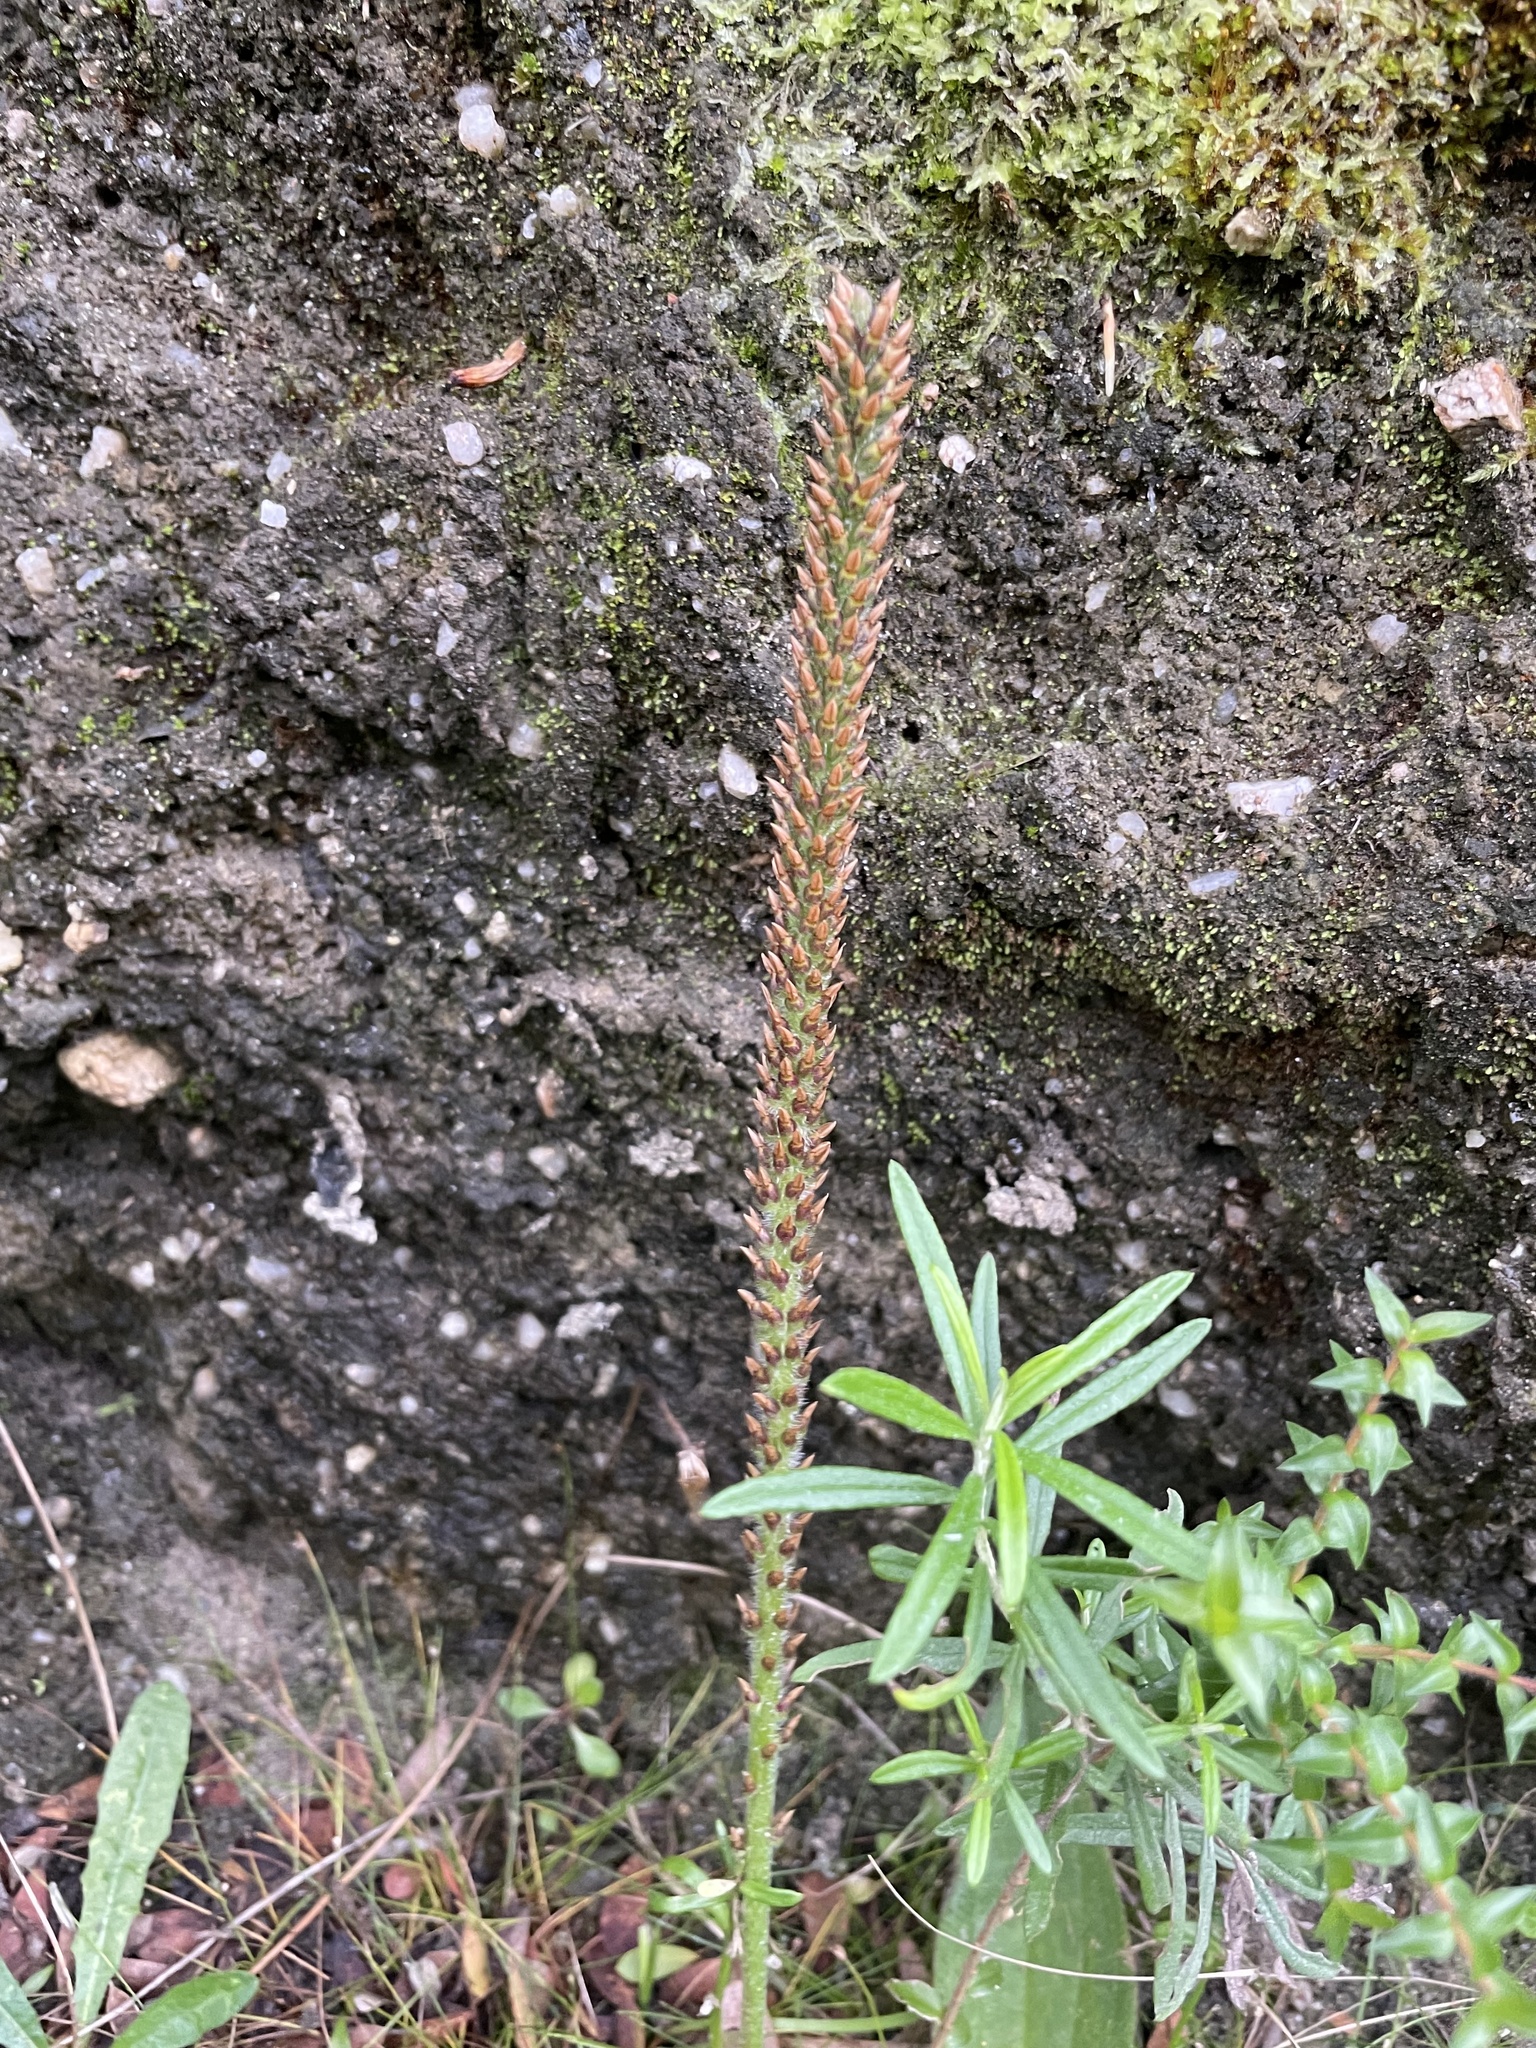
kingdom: Plantae
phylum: Tracheophyta
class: Magnoliopsida
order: Lamiales
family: Plantaginaceae
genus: Plantago
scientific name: Plantago australis
